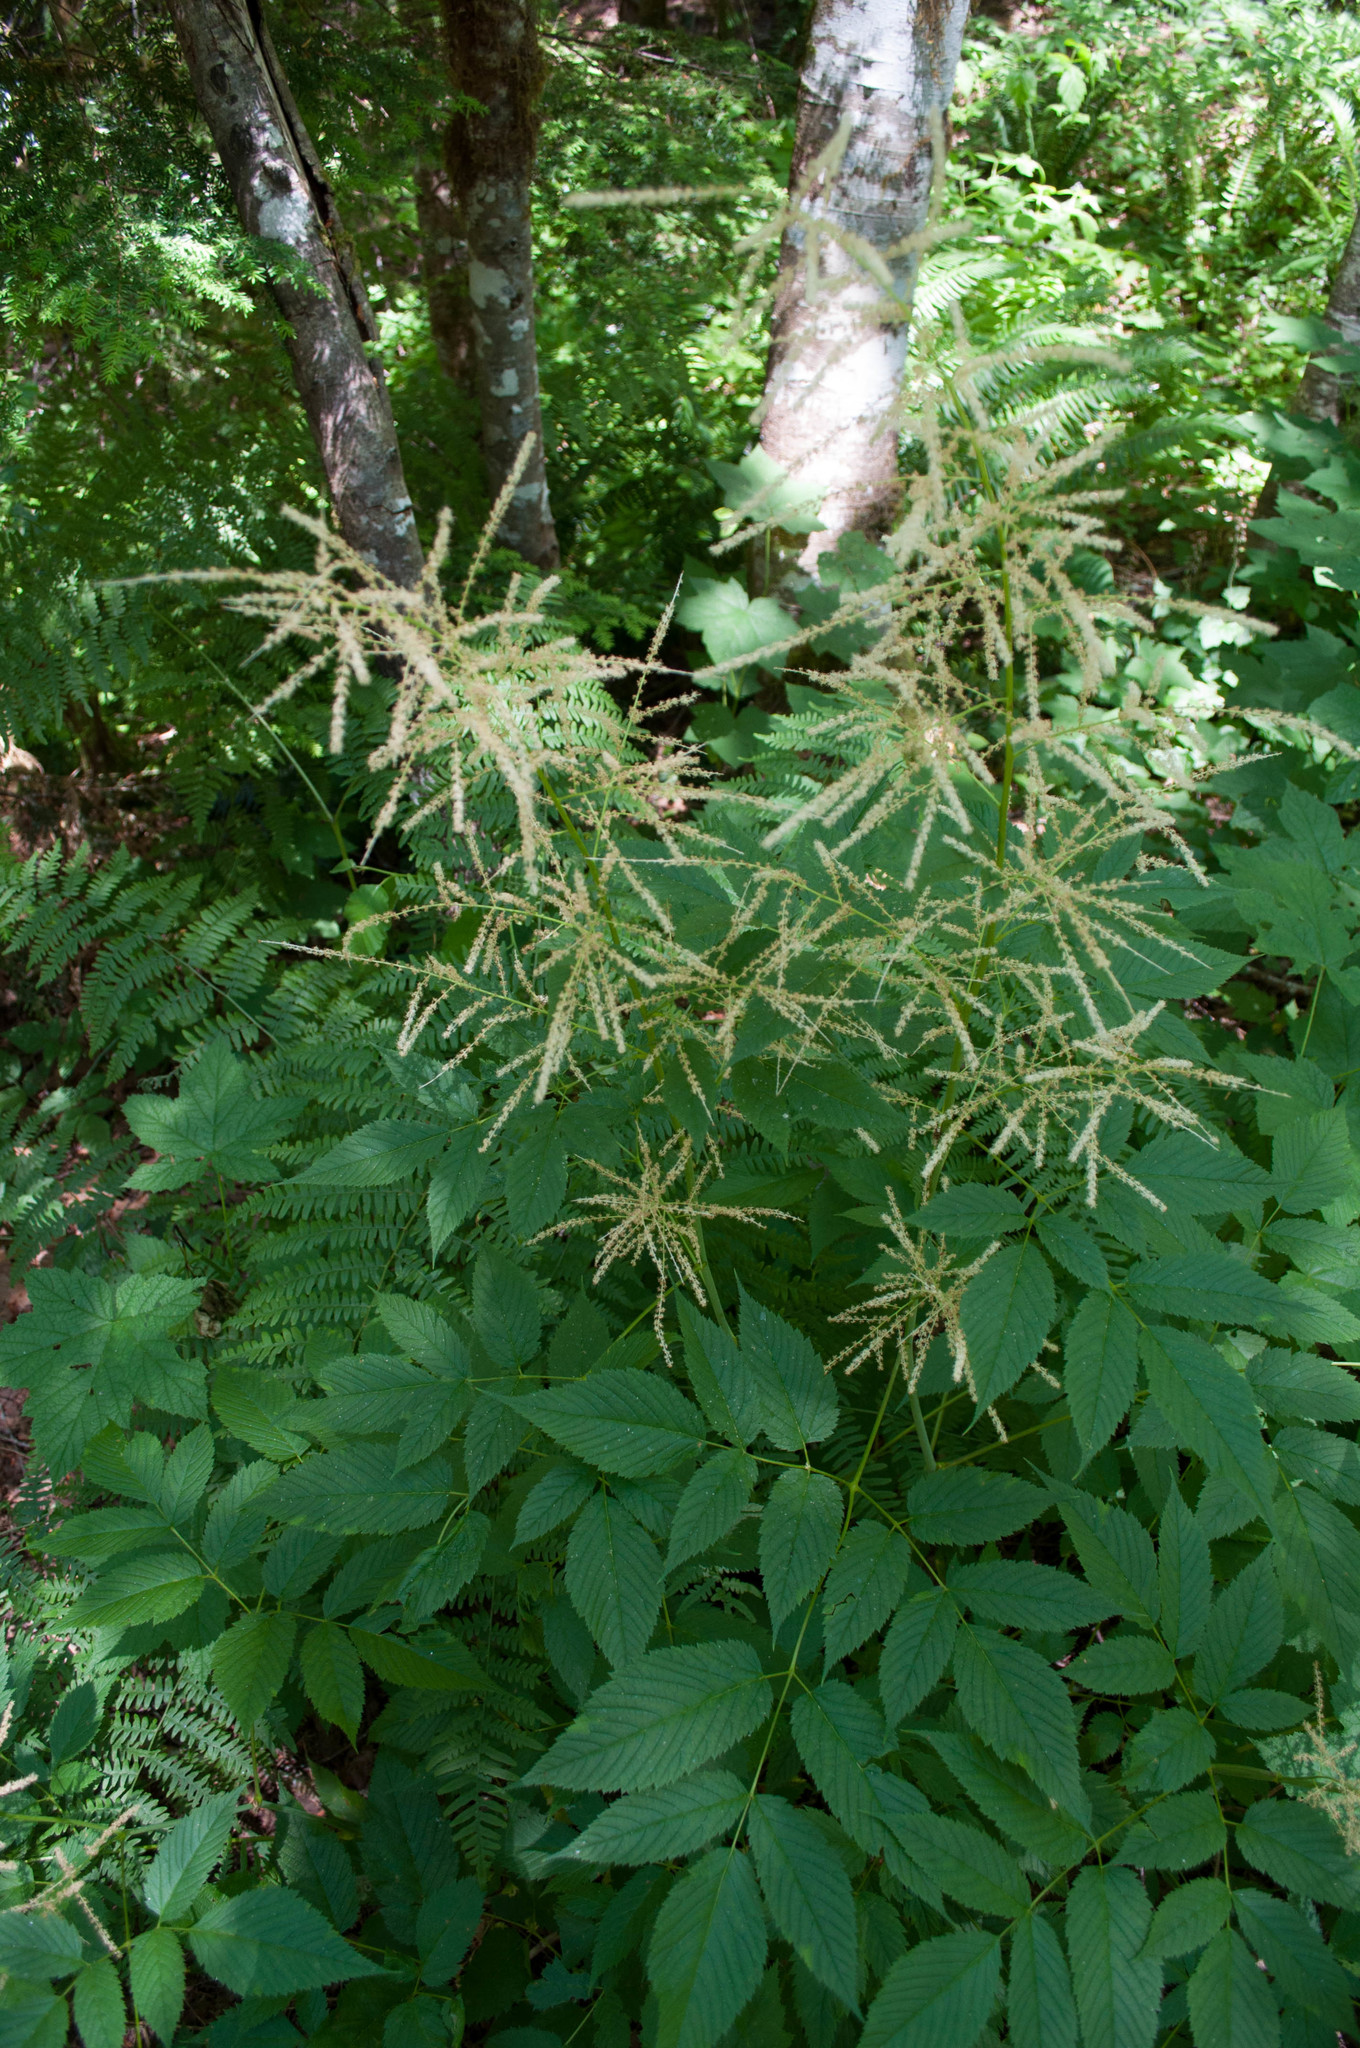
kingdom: Plantae
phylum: Tracheophyta
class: Magnoliopsida
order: Rosales
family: Rosaceae
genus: Aruncus
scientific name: Aruncus dioicus
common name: Buck's-beard
